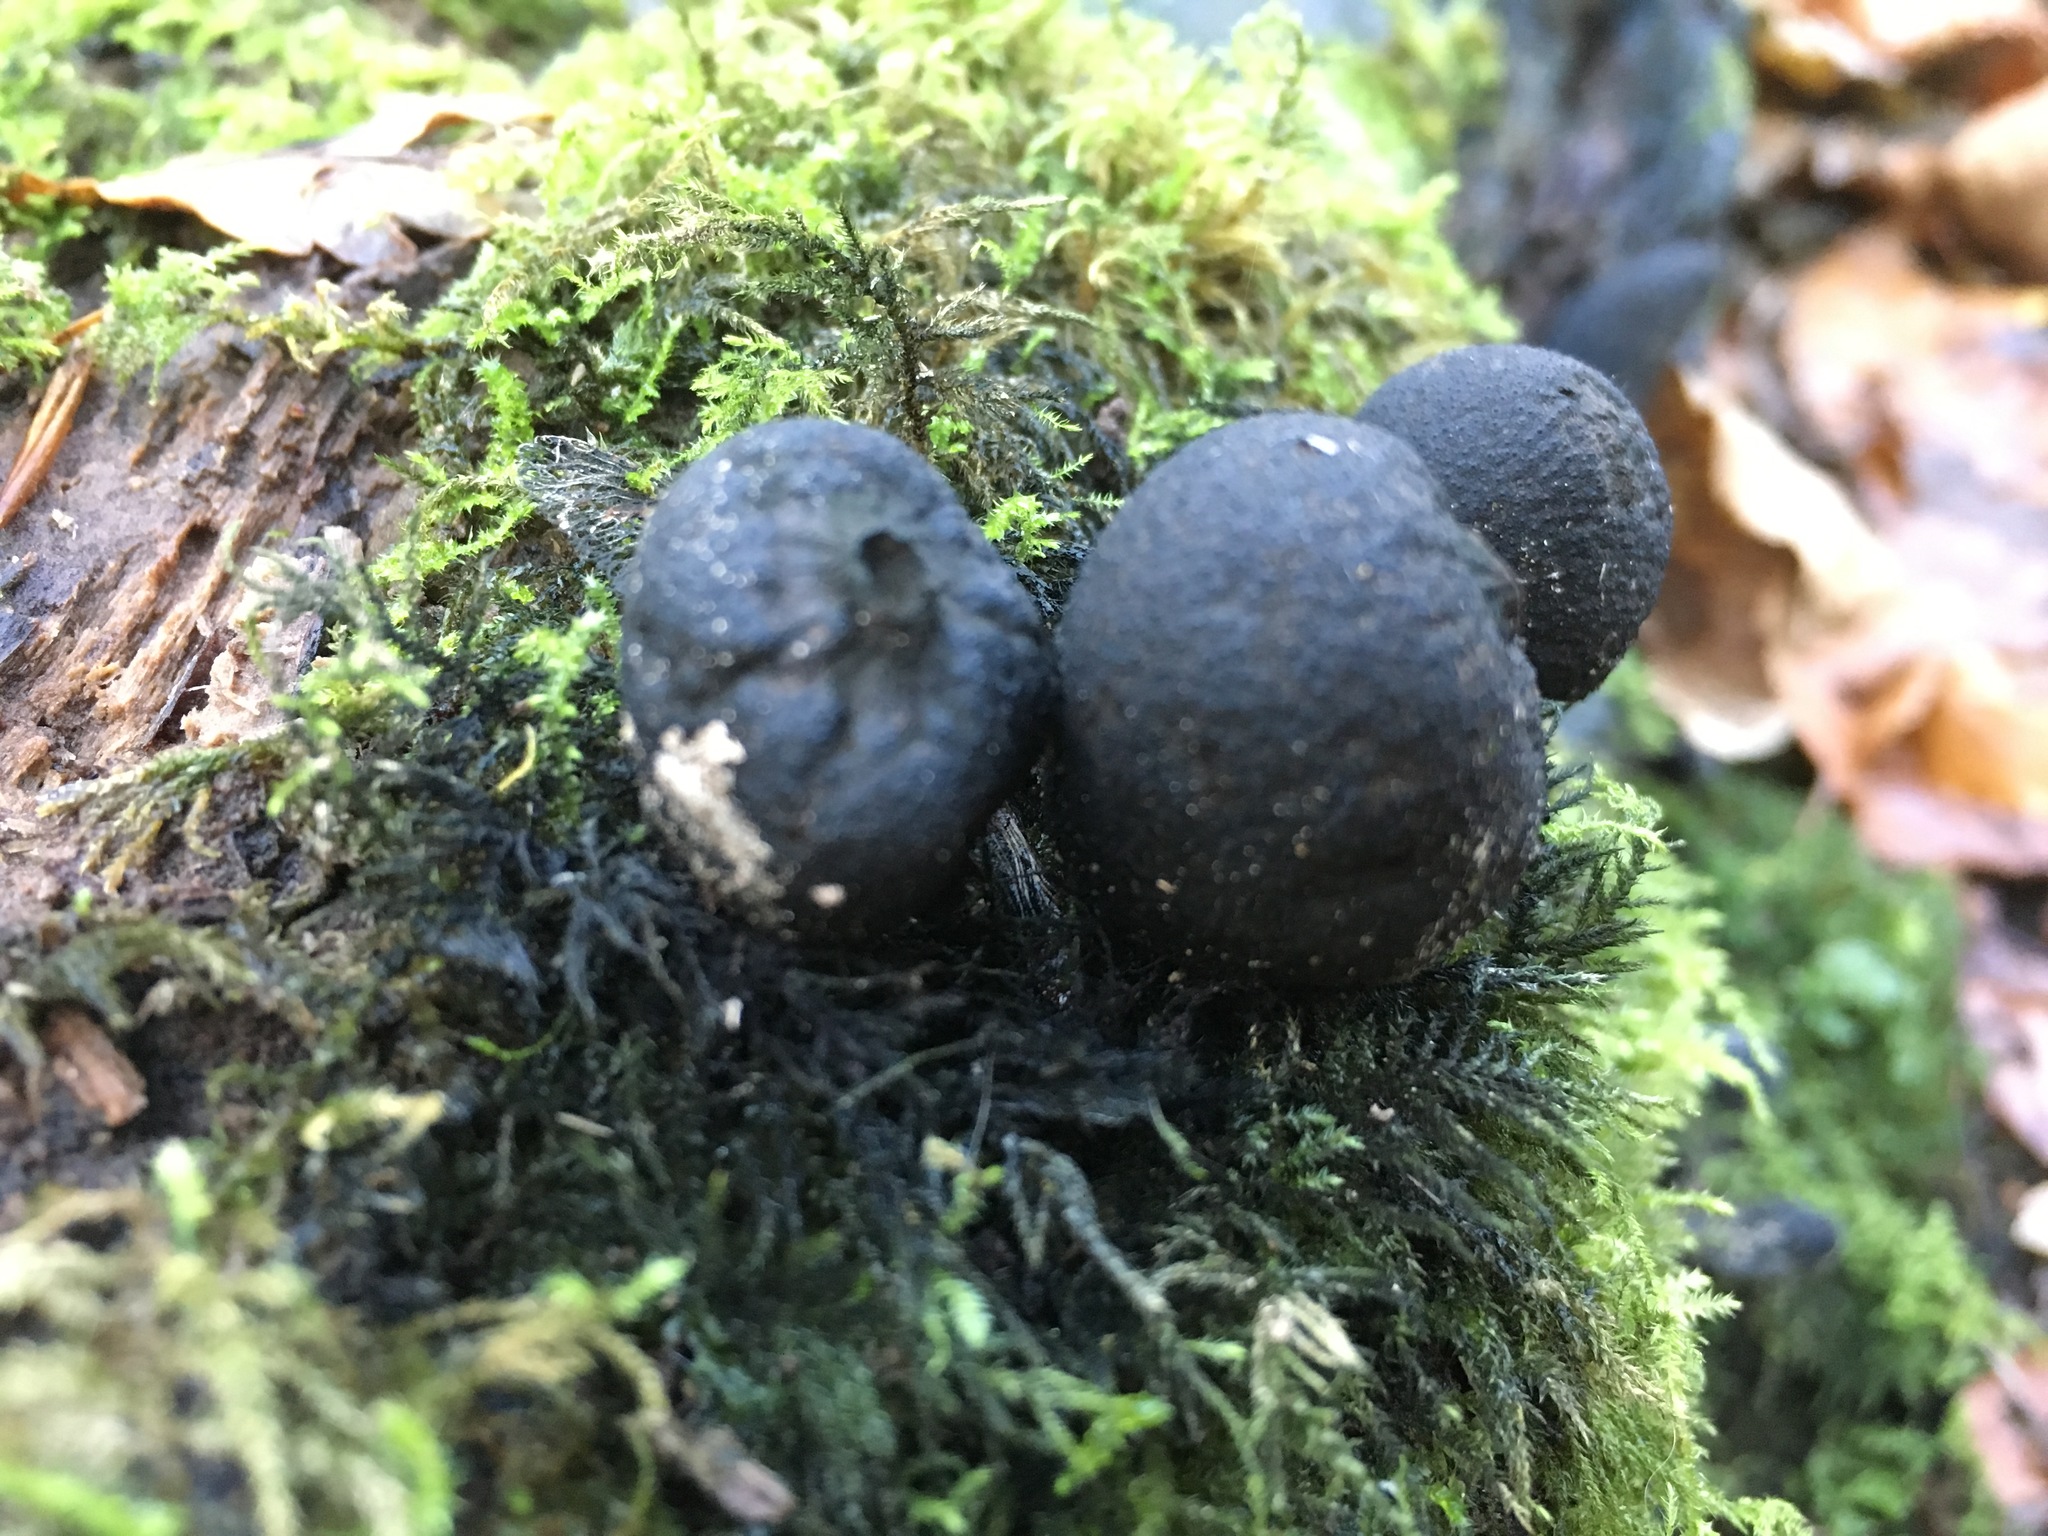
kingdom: Fungi
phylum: Ascomycota
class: Sordariomycetes
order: Xylariales
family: Hypoxylaceae
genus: Daldinia
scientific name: Daldinia concentrica
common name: Cramp balls
